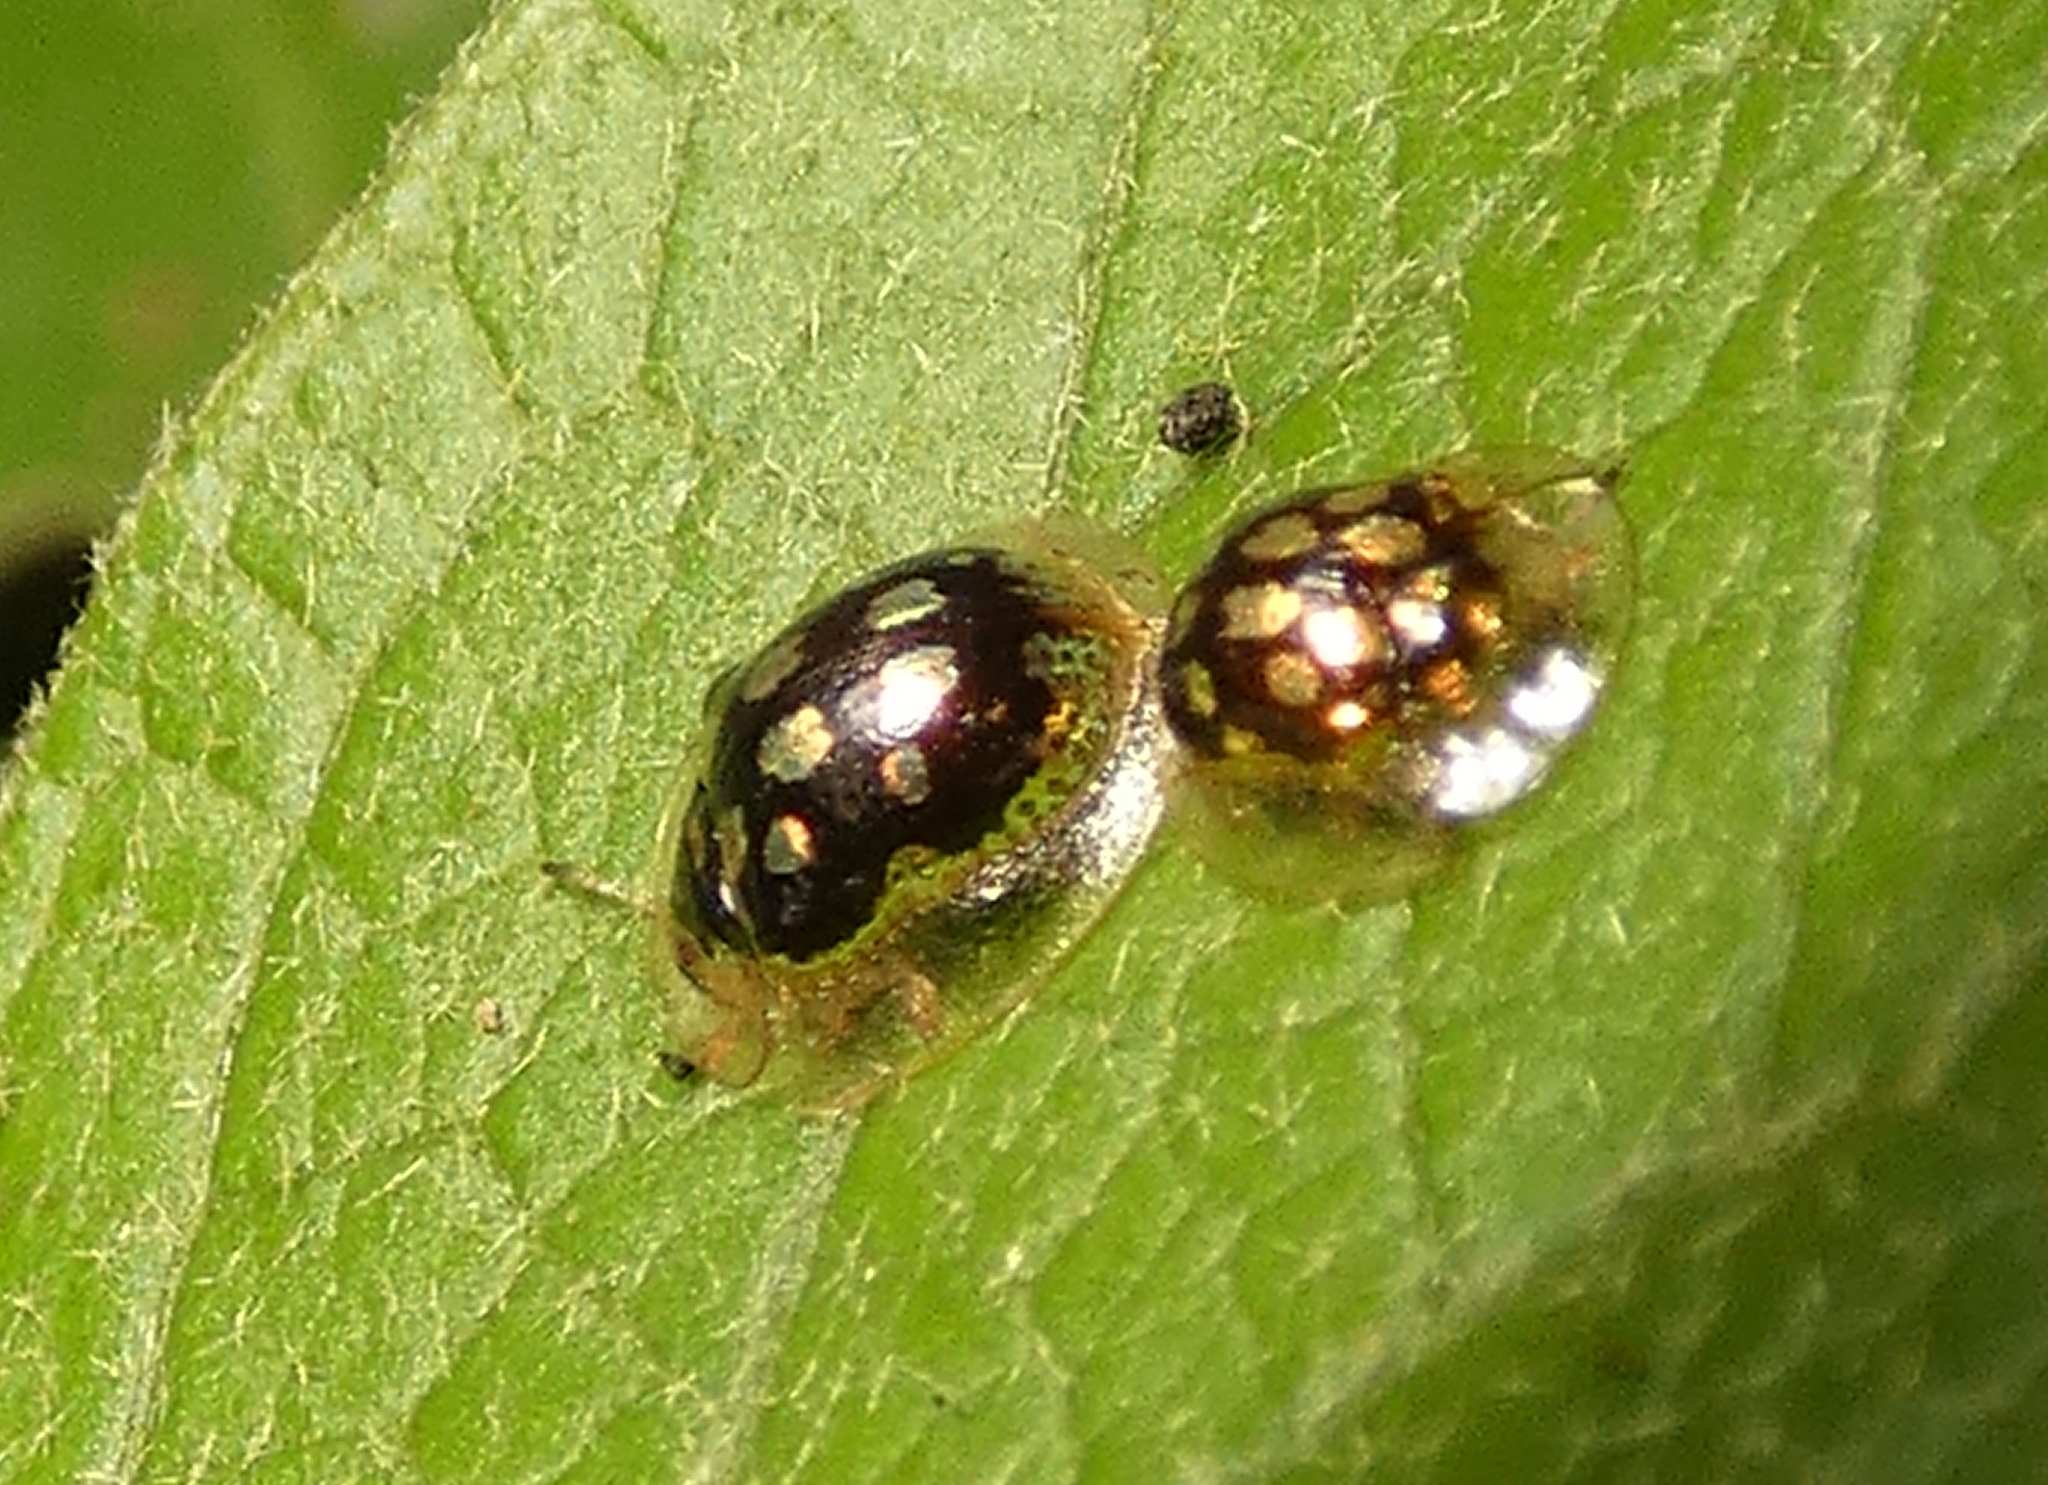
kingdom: Animalia
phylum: Arthropoda
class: Insecta
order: Coleoptera
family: Chrysomelidae
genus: Plagiometriona
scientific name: Plagiometriona microcera
